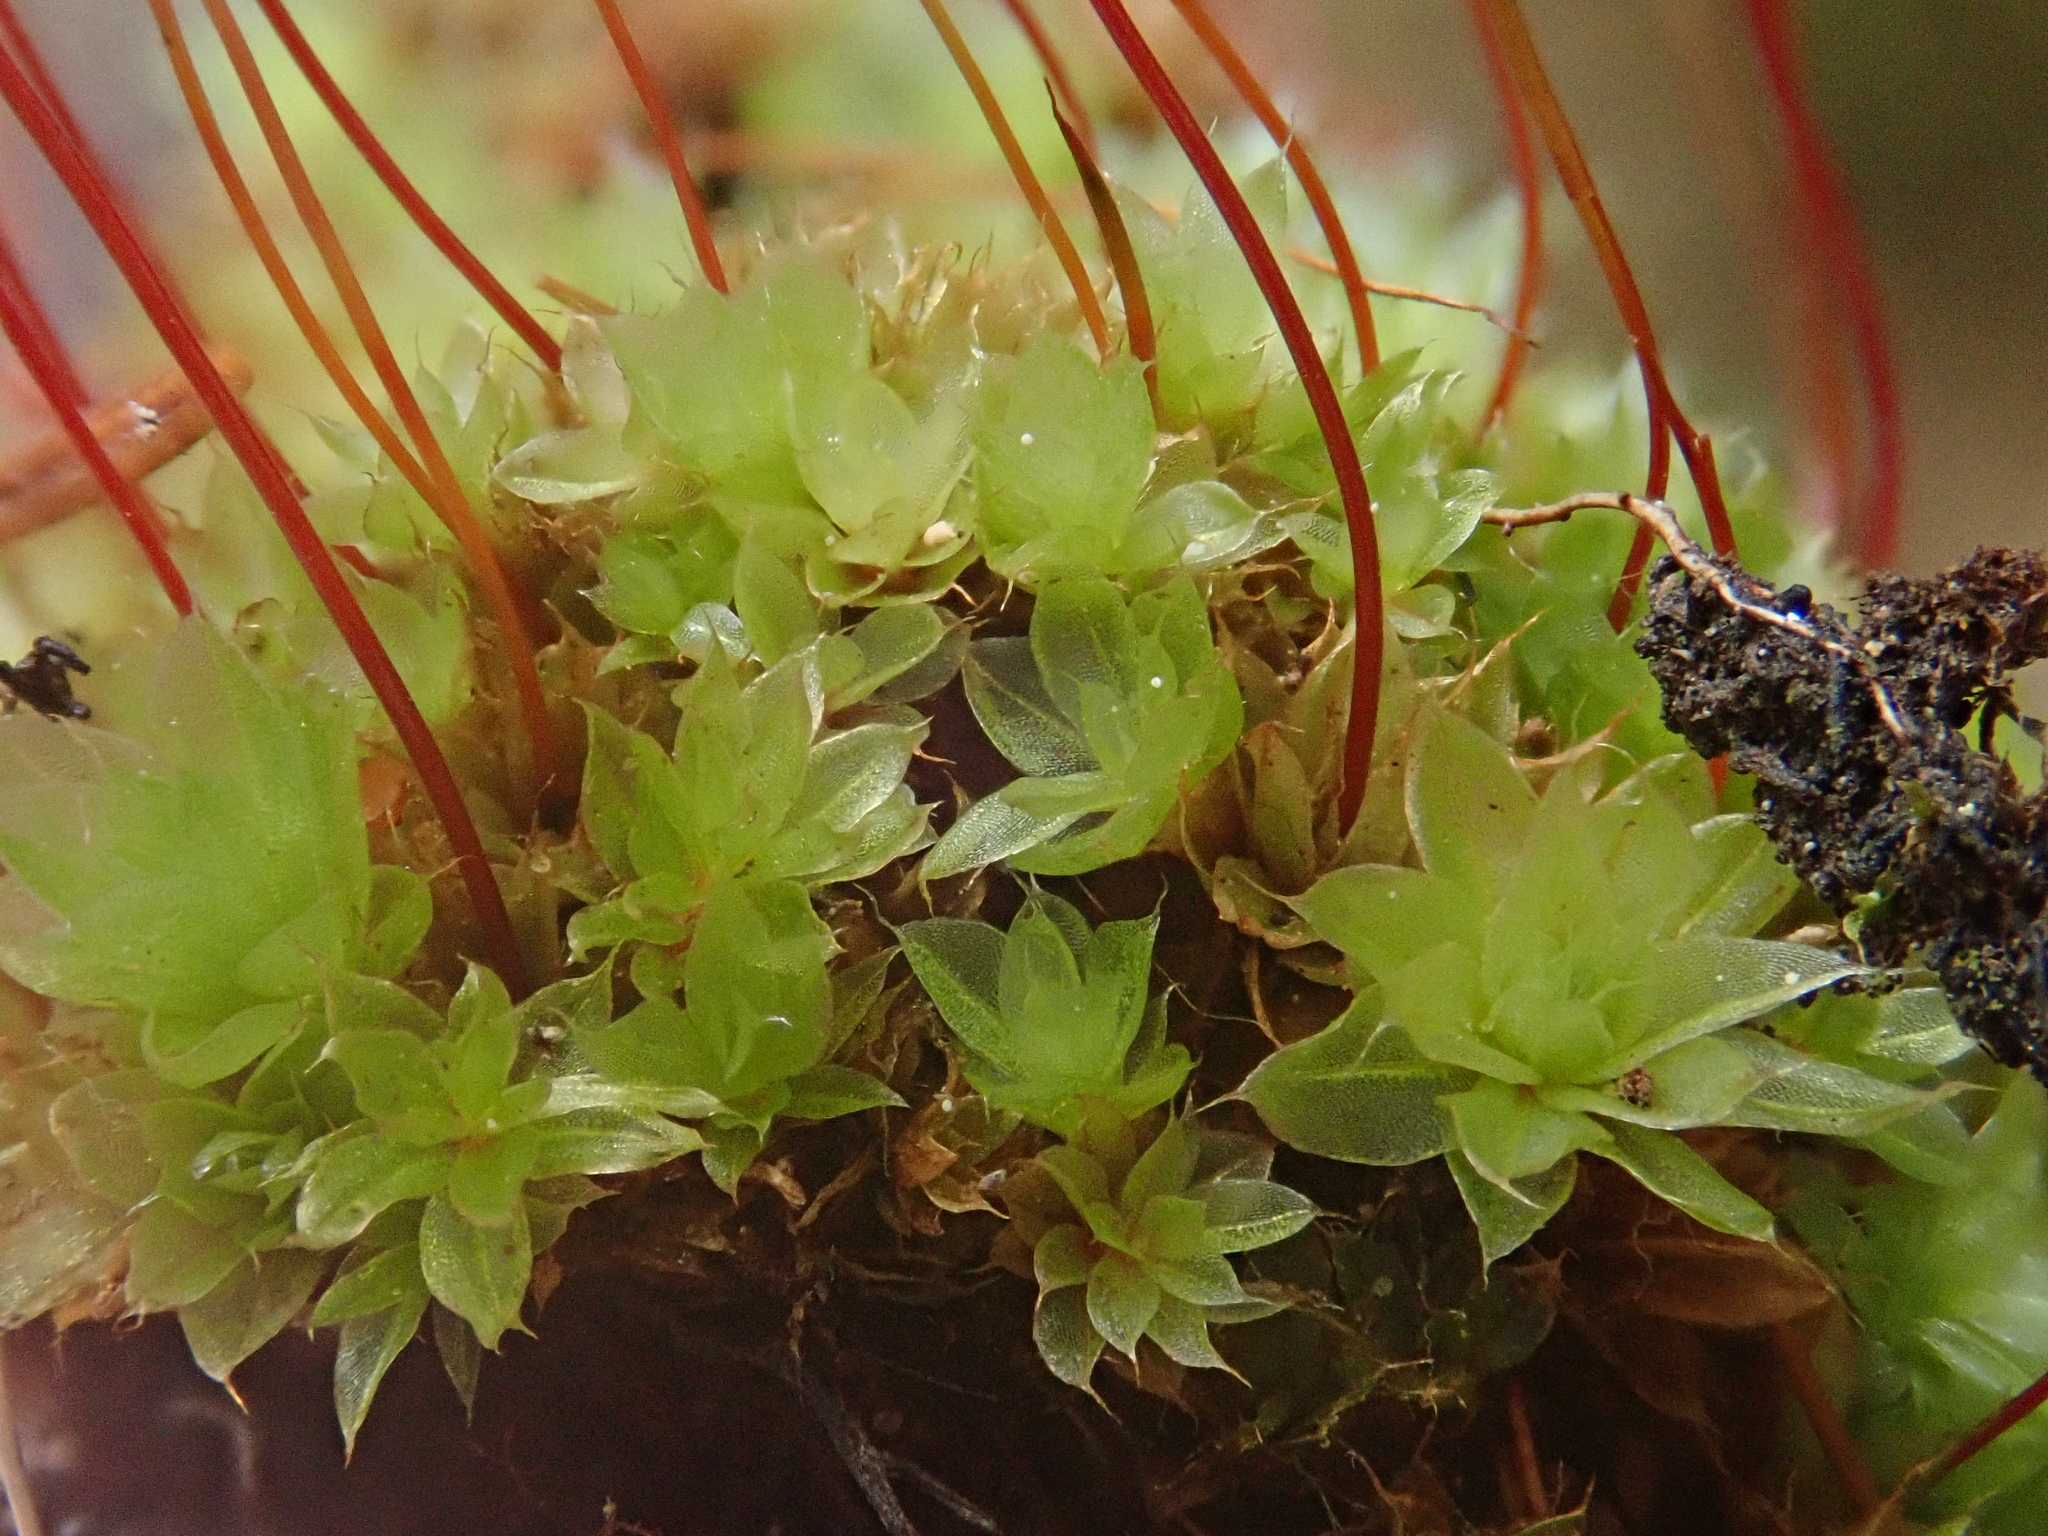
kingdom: Plantae
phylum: Bryophyta
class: Bryopsida
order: Bryales
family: Bryaceae
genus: Rosulabryum
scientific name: Rosulabryum capillare
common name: Capillary thread-moss
